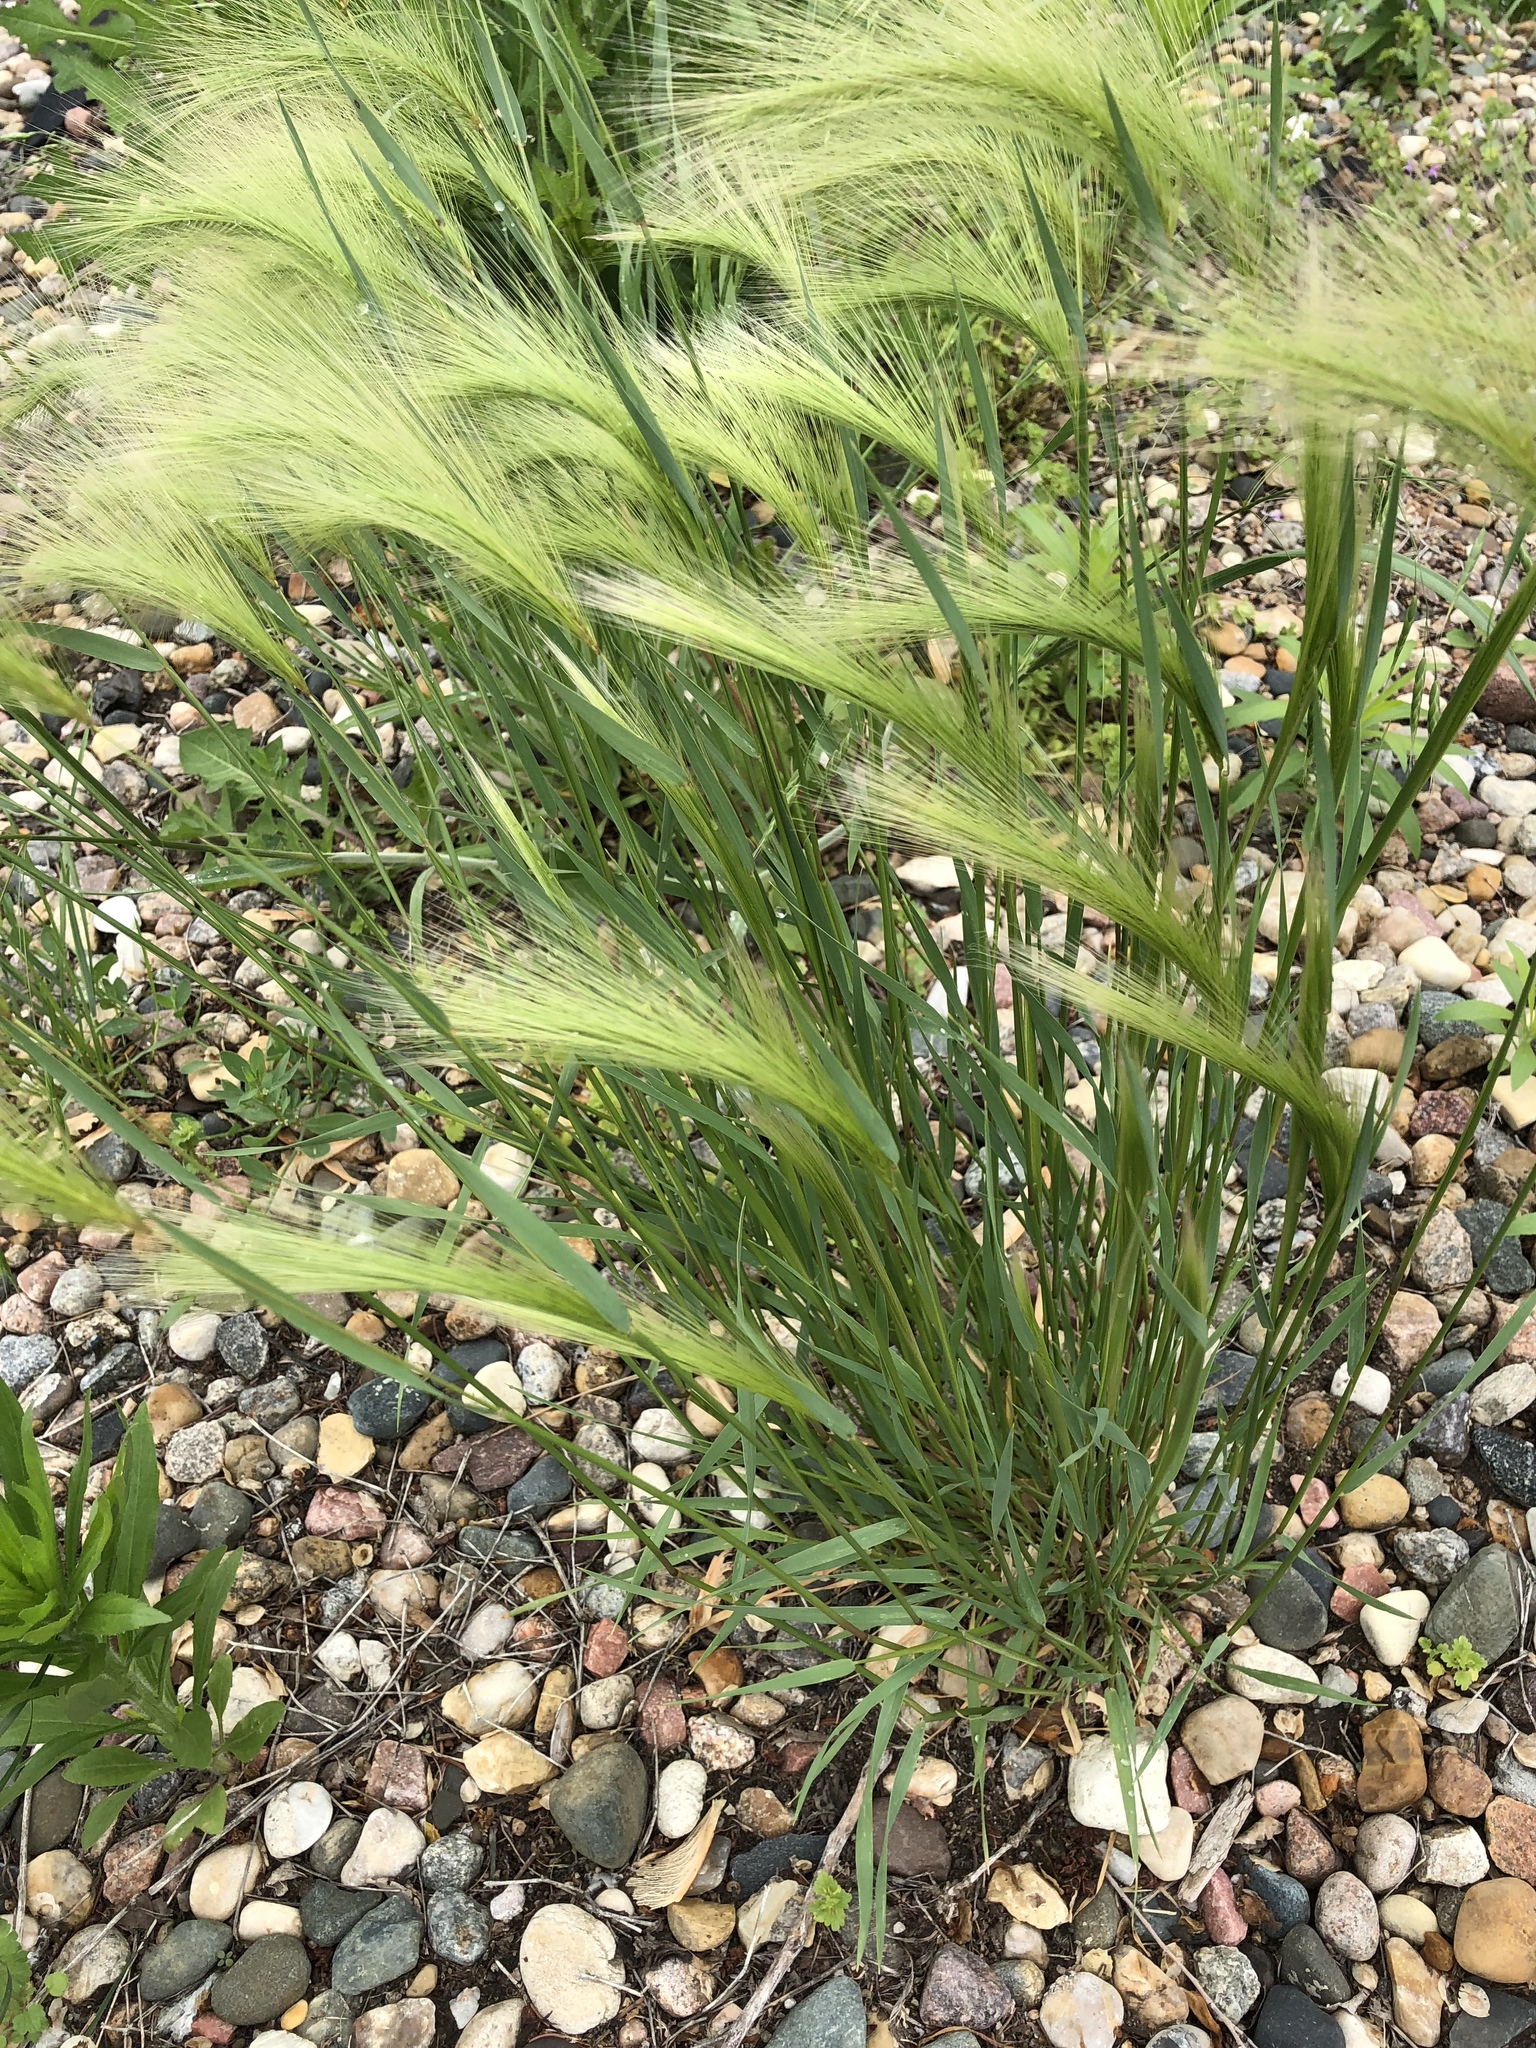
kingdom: Plantae
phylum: Tracheophyta
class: Liliopsida
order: Poales
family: Poaceae
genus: Hordeum
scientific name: Hordeum jubatum
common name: Foxtail barley
